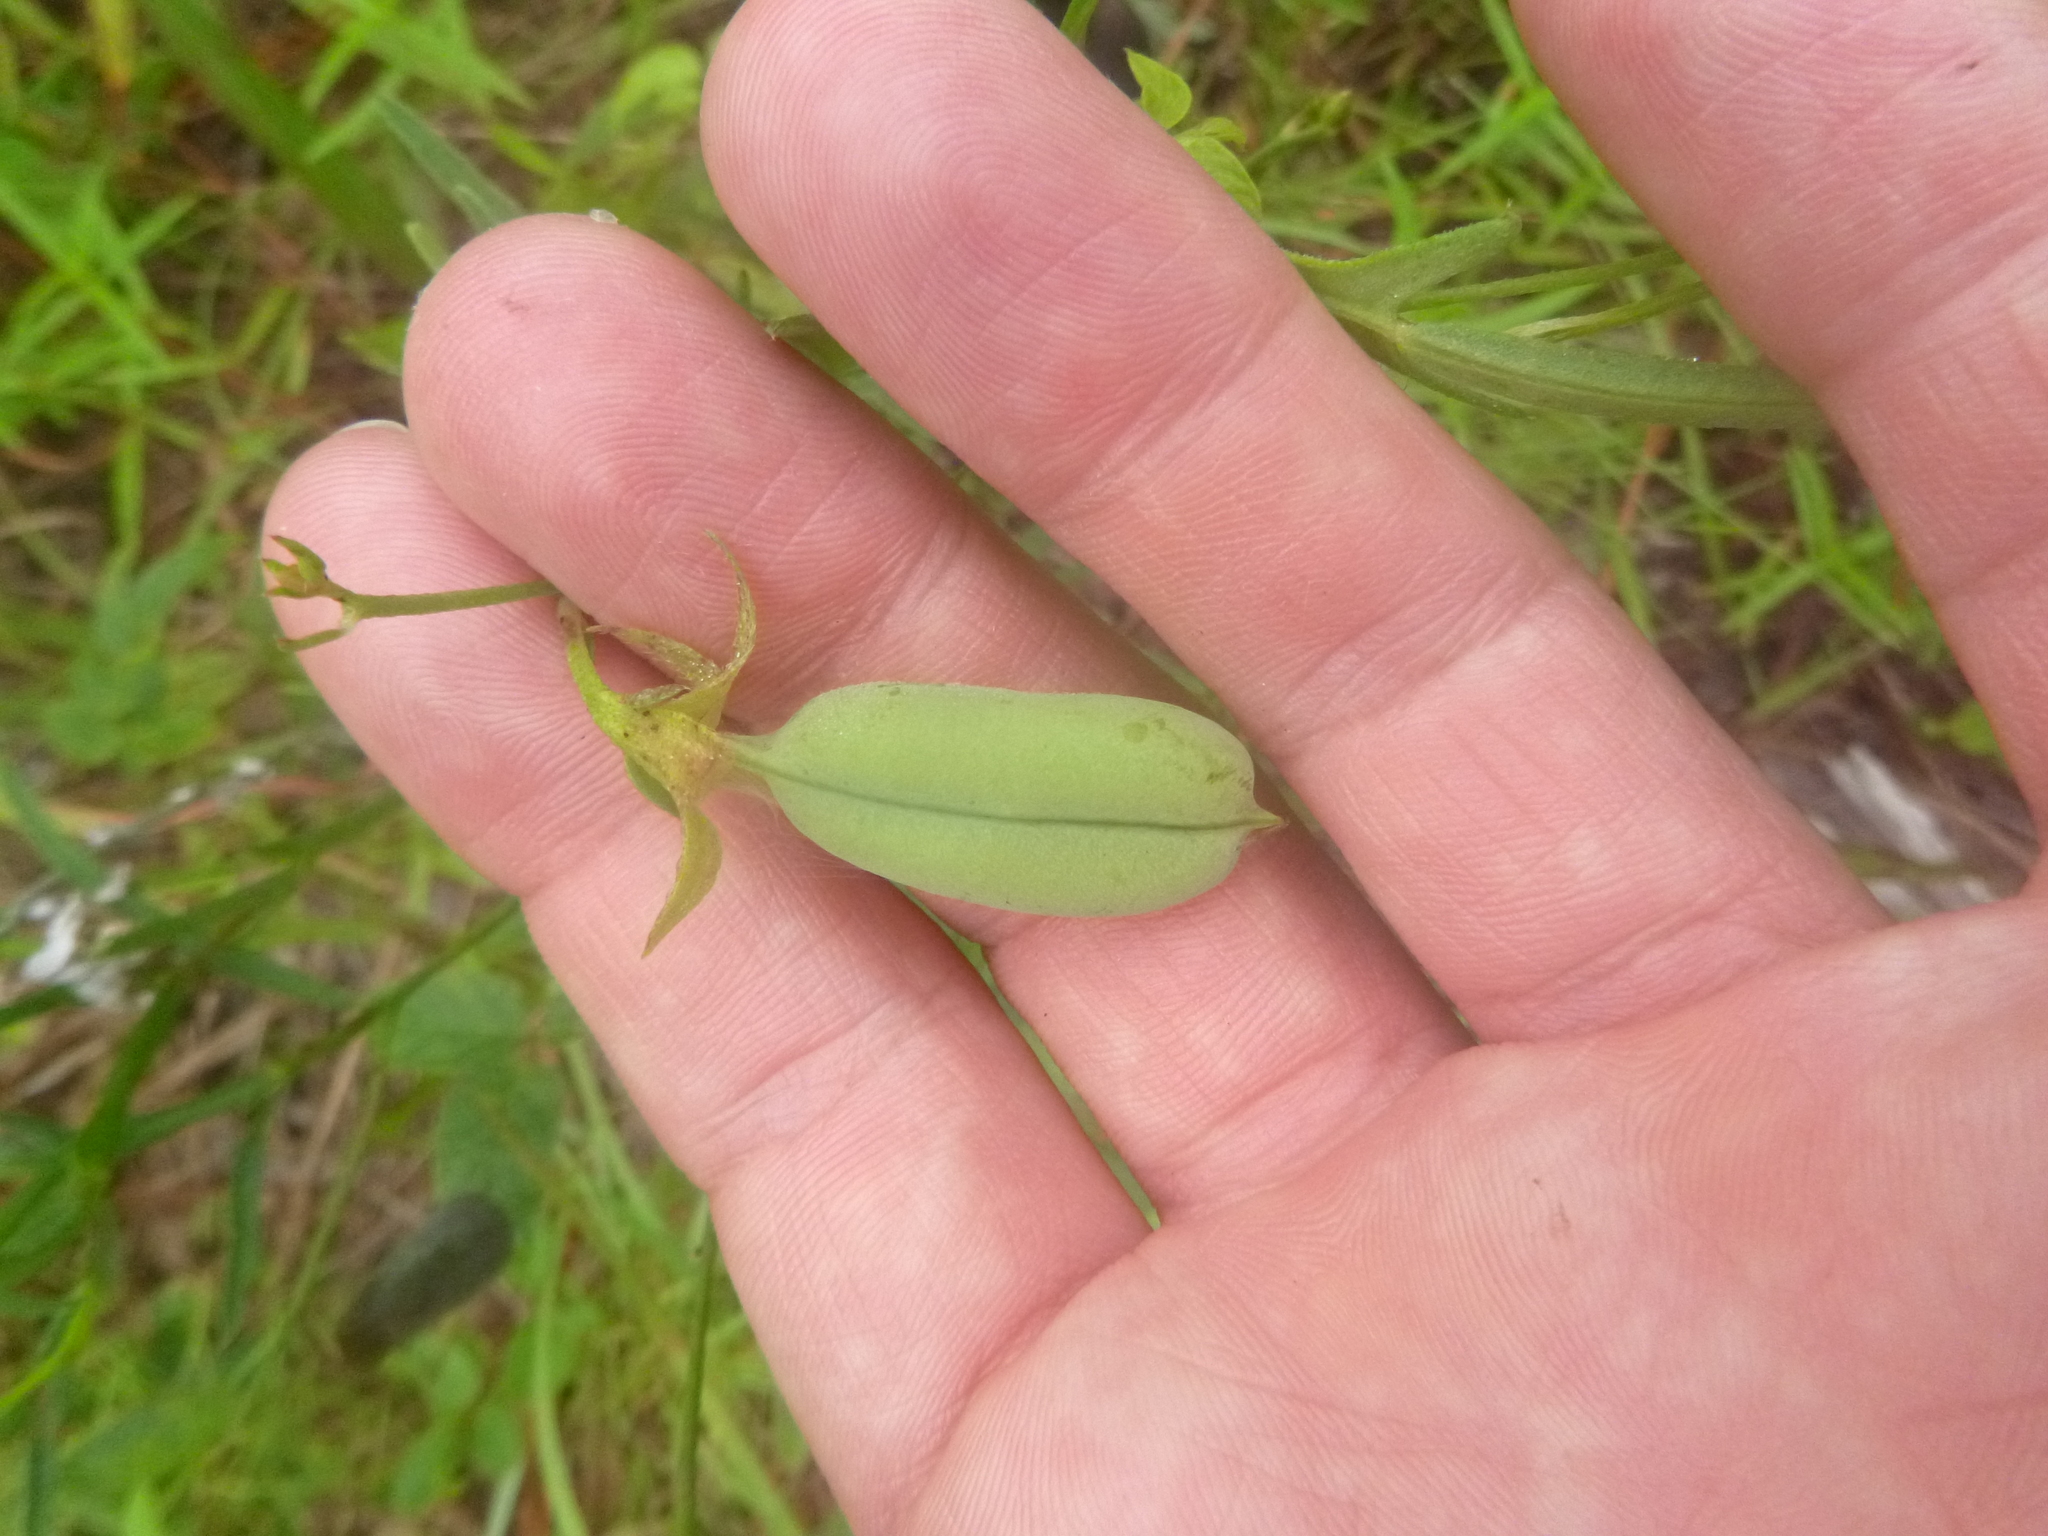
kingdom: Plantae
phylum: Tracheophyta
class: Magnoliopsida
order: Fabales
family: Fabaceae
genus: Crotalaria
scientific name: Crotalaria purshii
